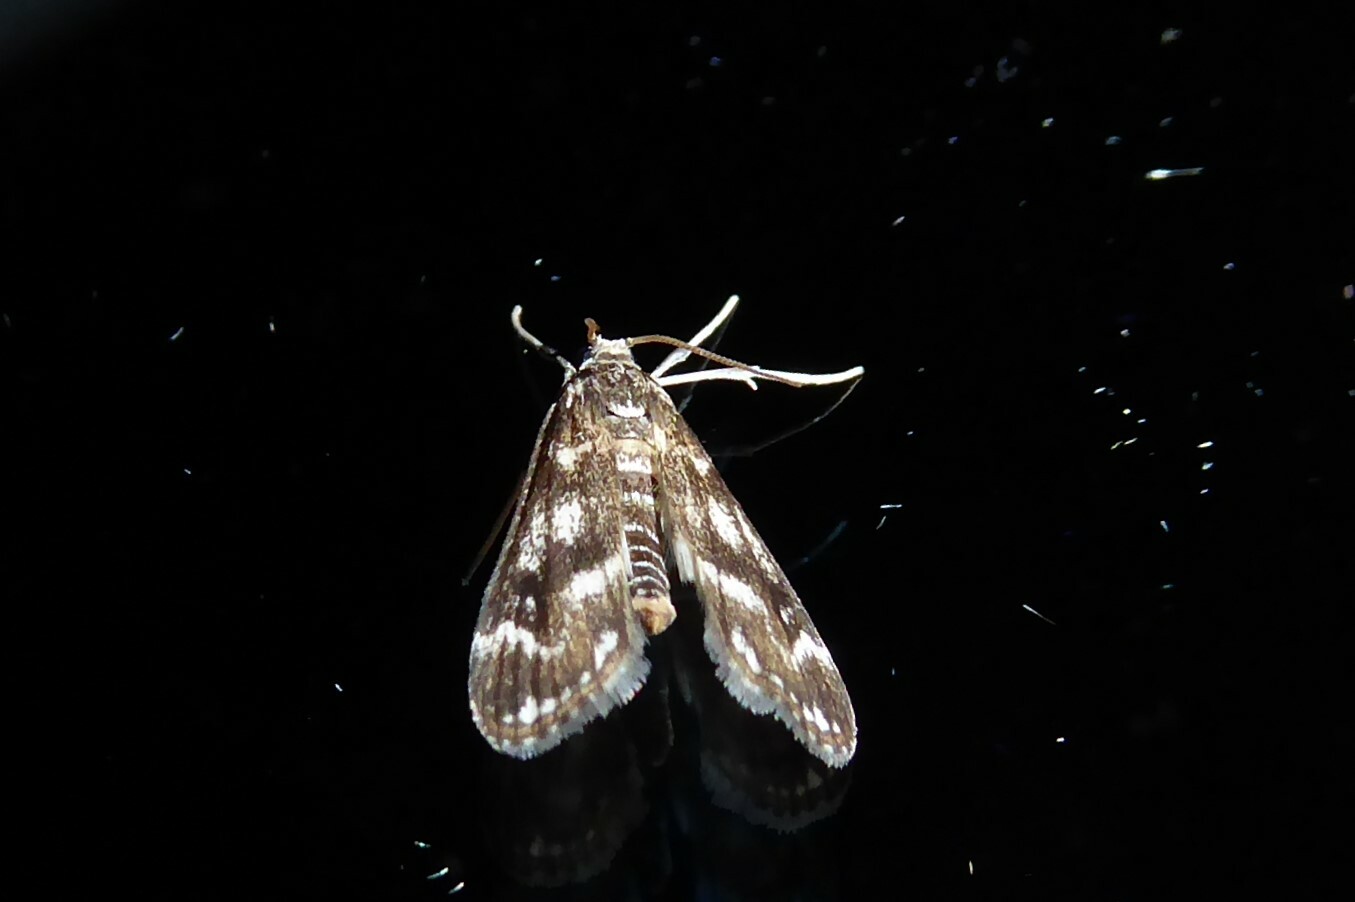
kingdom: Animalia
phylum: Arthropoda
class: Insecta
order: Lepidoptera
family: Crambidae
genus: Hygraula
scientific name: Hygraula nitens
